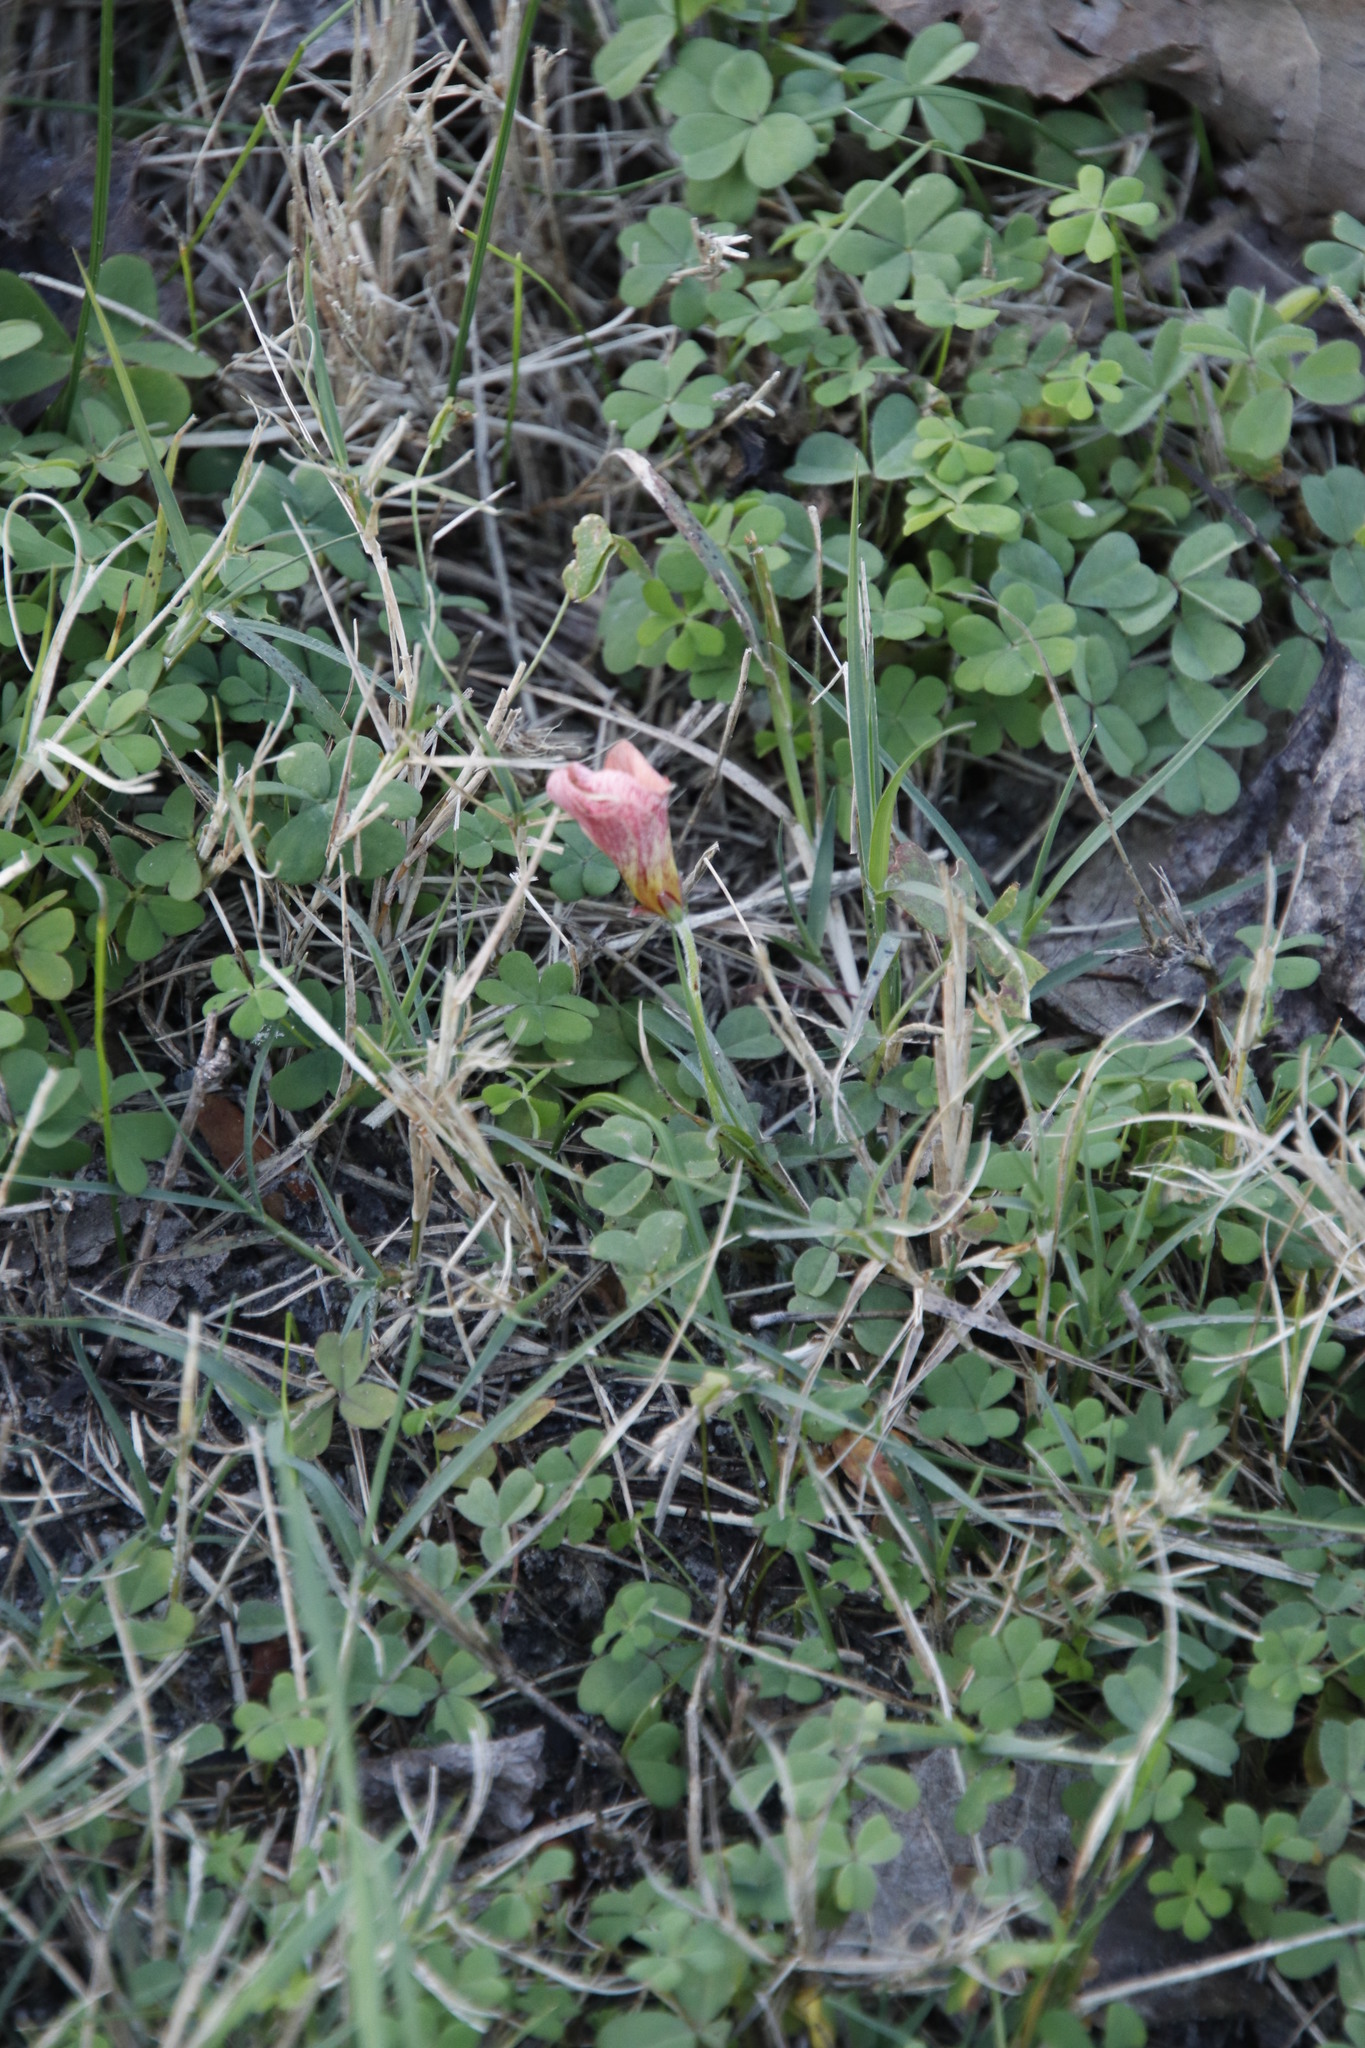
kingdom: Plantae
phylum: Tracheophyta
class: Magnoliopsida
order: Oxalidales
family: Oxalidaceae
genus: Oxalis
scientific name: Oxalis obtusa
